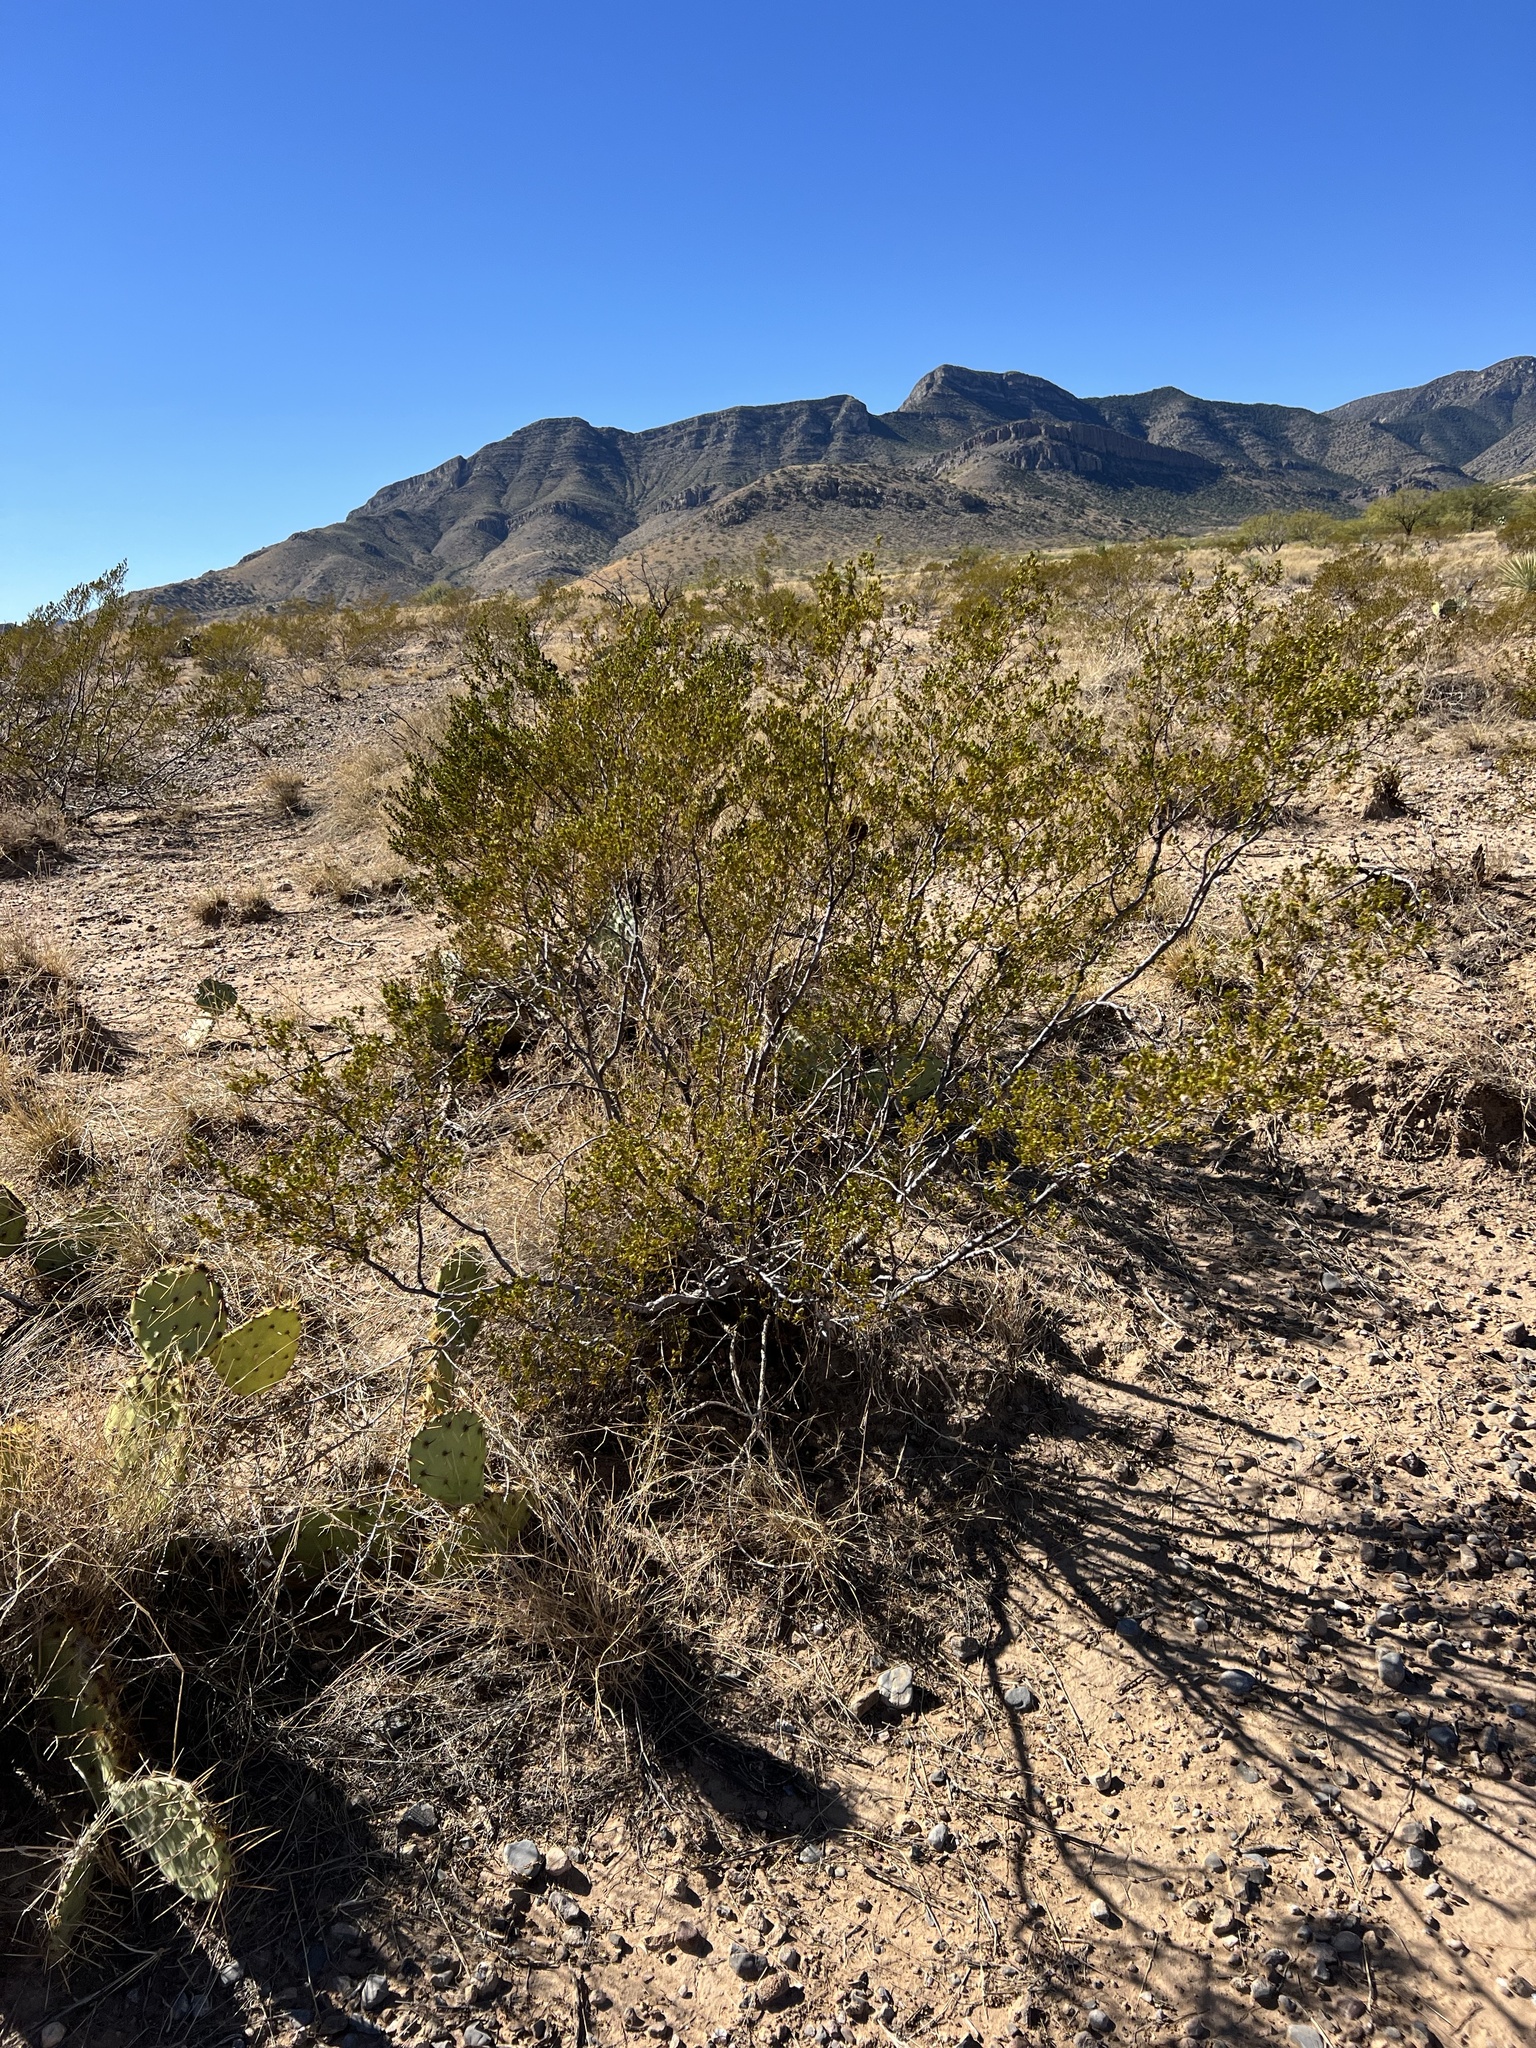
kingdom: Plantae
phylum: Tracheophyta
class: Magnoliopsida
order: Zygophyllales
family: Zygophyllaceae
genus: Larrea
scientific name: Larrea tridentata
